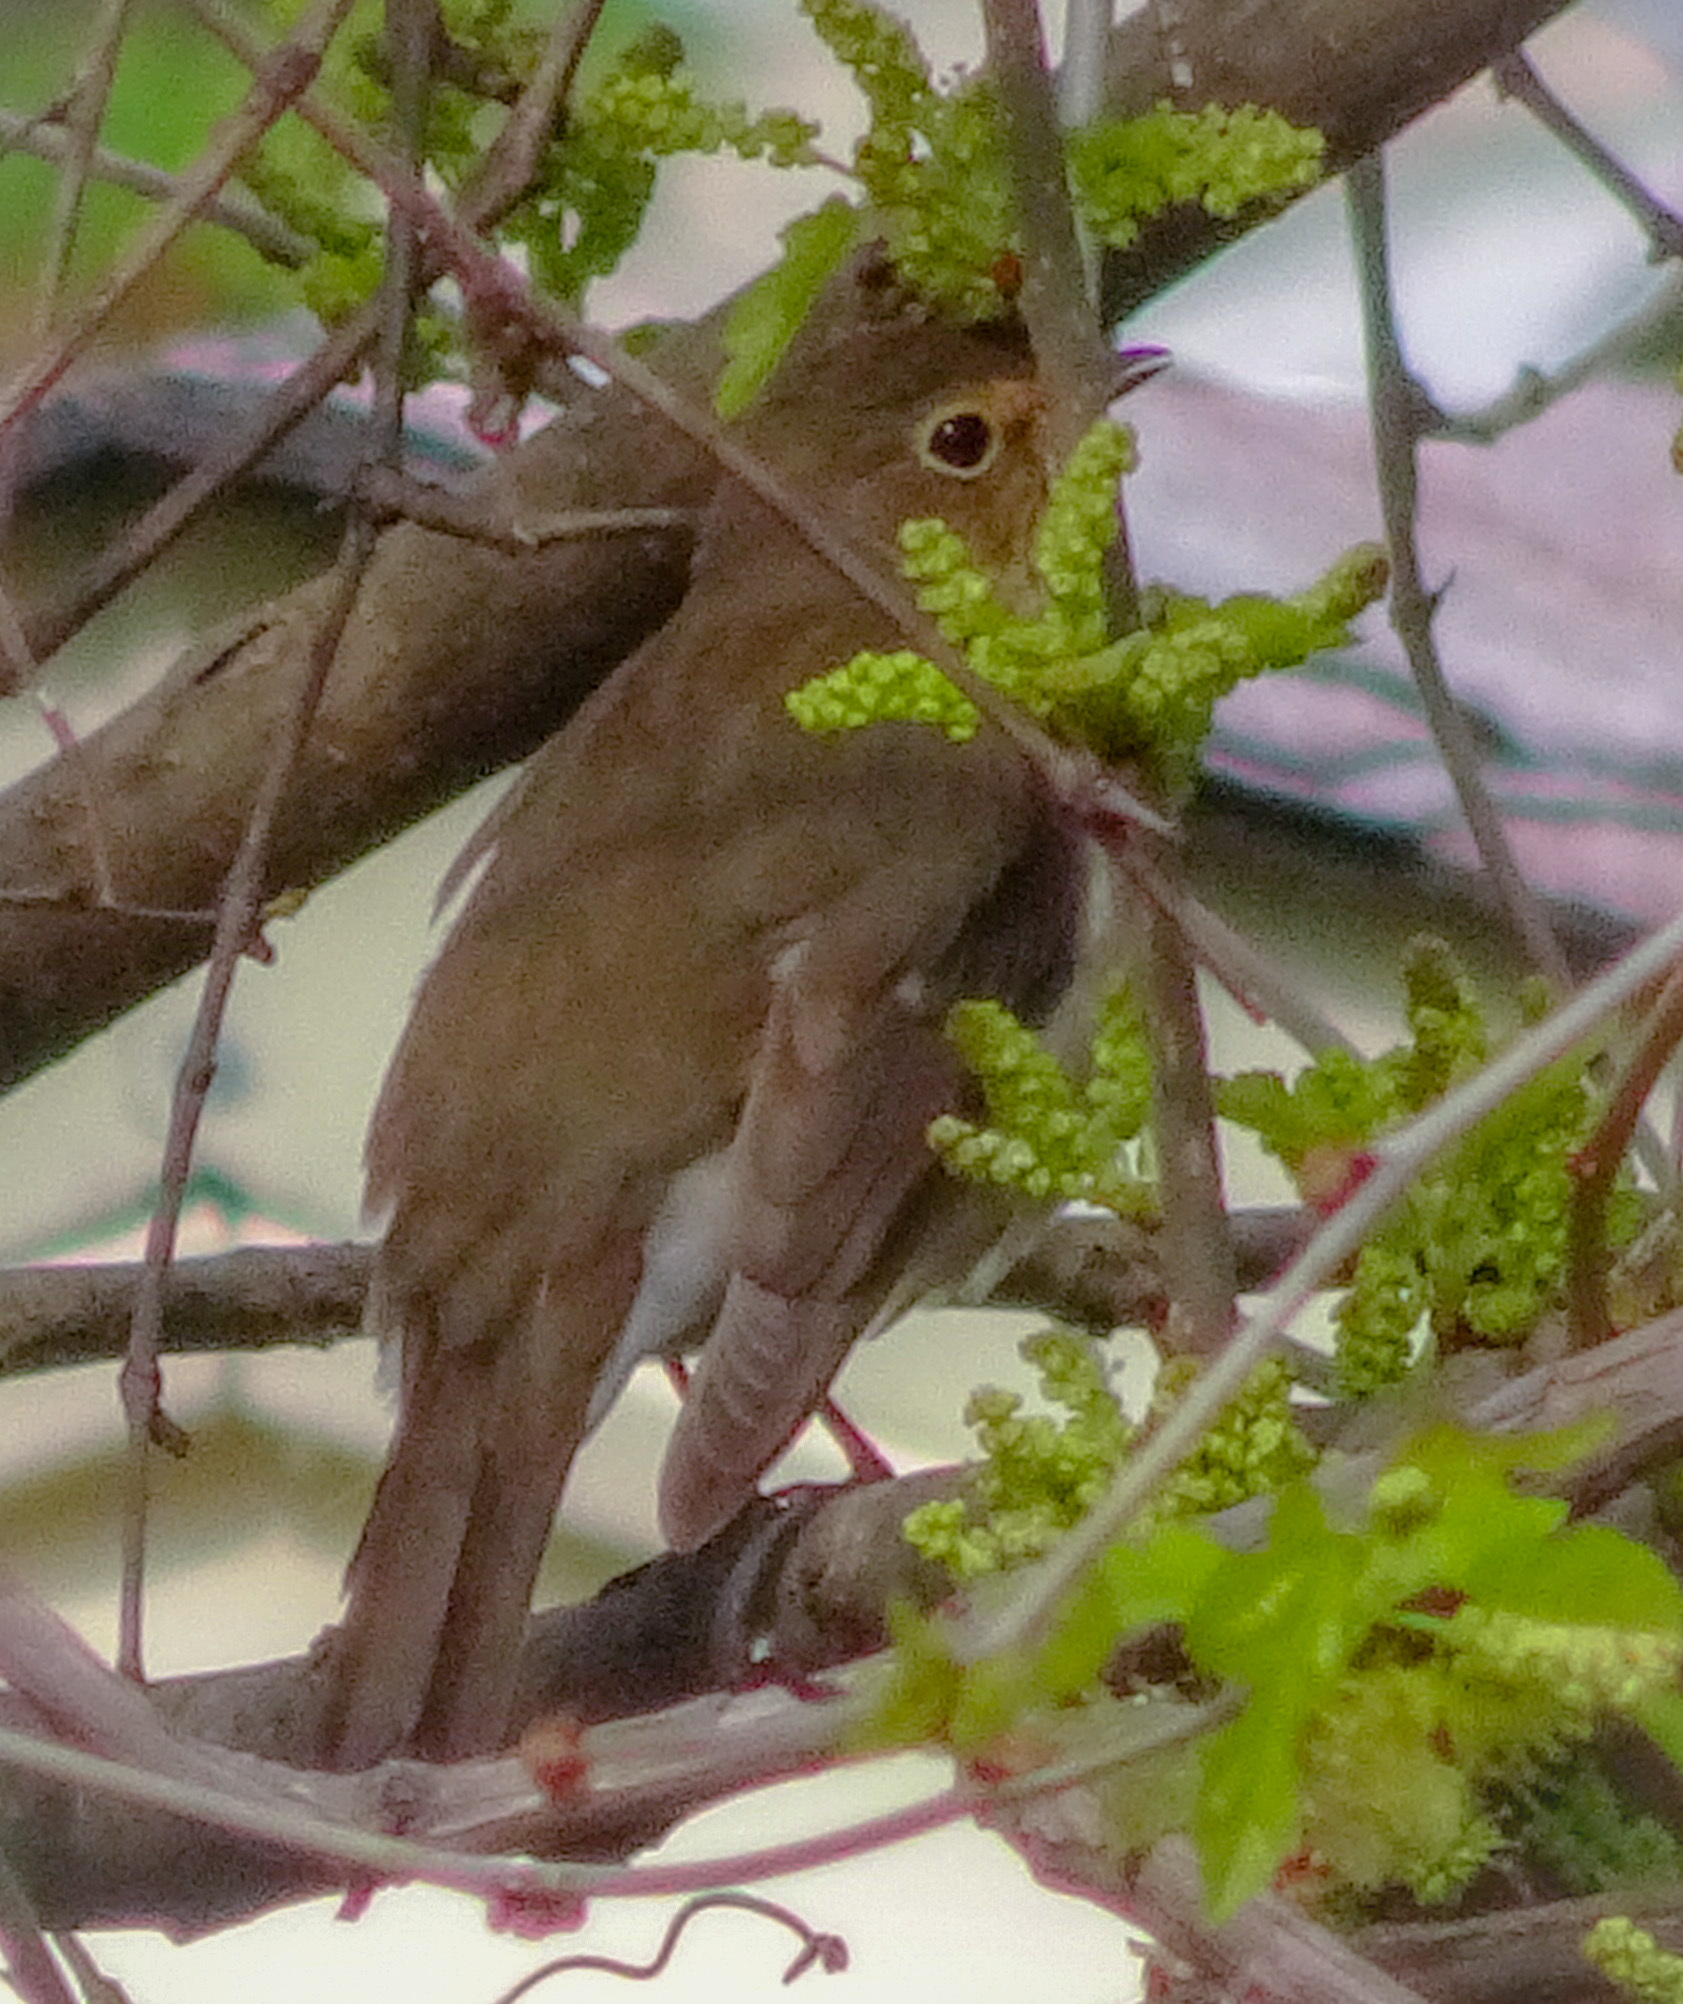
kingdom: Animalia
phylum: Chordata
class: Aves
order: Passeriformes
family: Turdidae
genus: Catharus
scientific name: Catharus ustulatus
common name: Swainson's thrush
